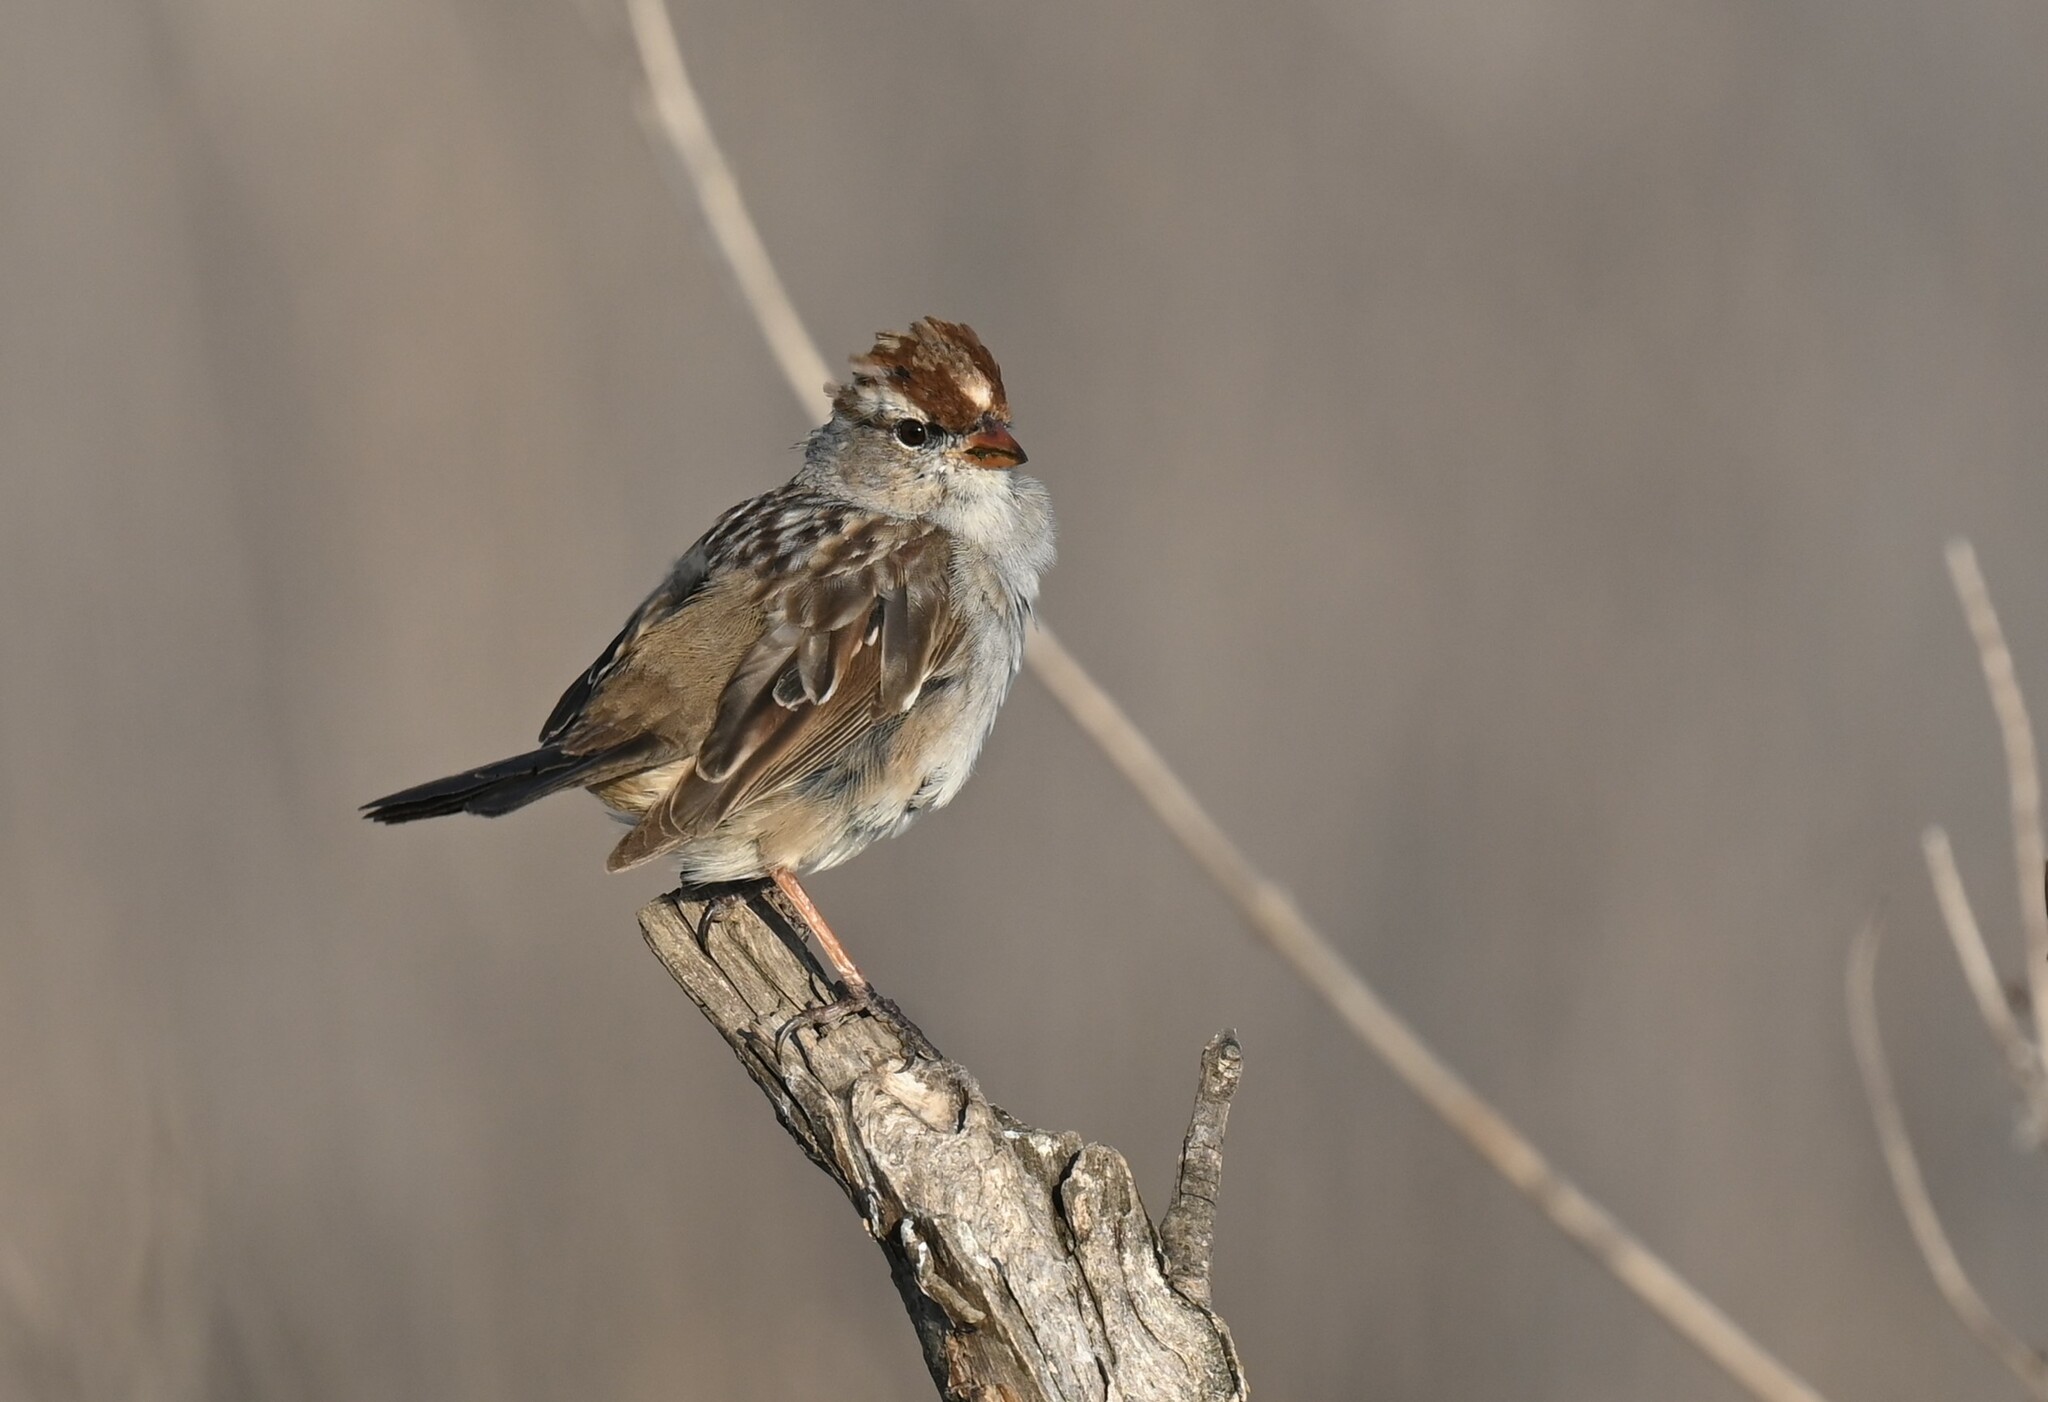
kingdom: Animalia
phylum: Chordata
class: Aves
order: Passeriformes
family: Passerellidae
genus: Zonotrichia
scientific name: Zonotrichia leucophrys
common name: White-crowned sparrow
